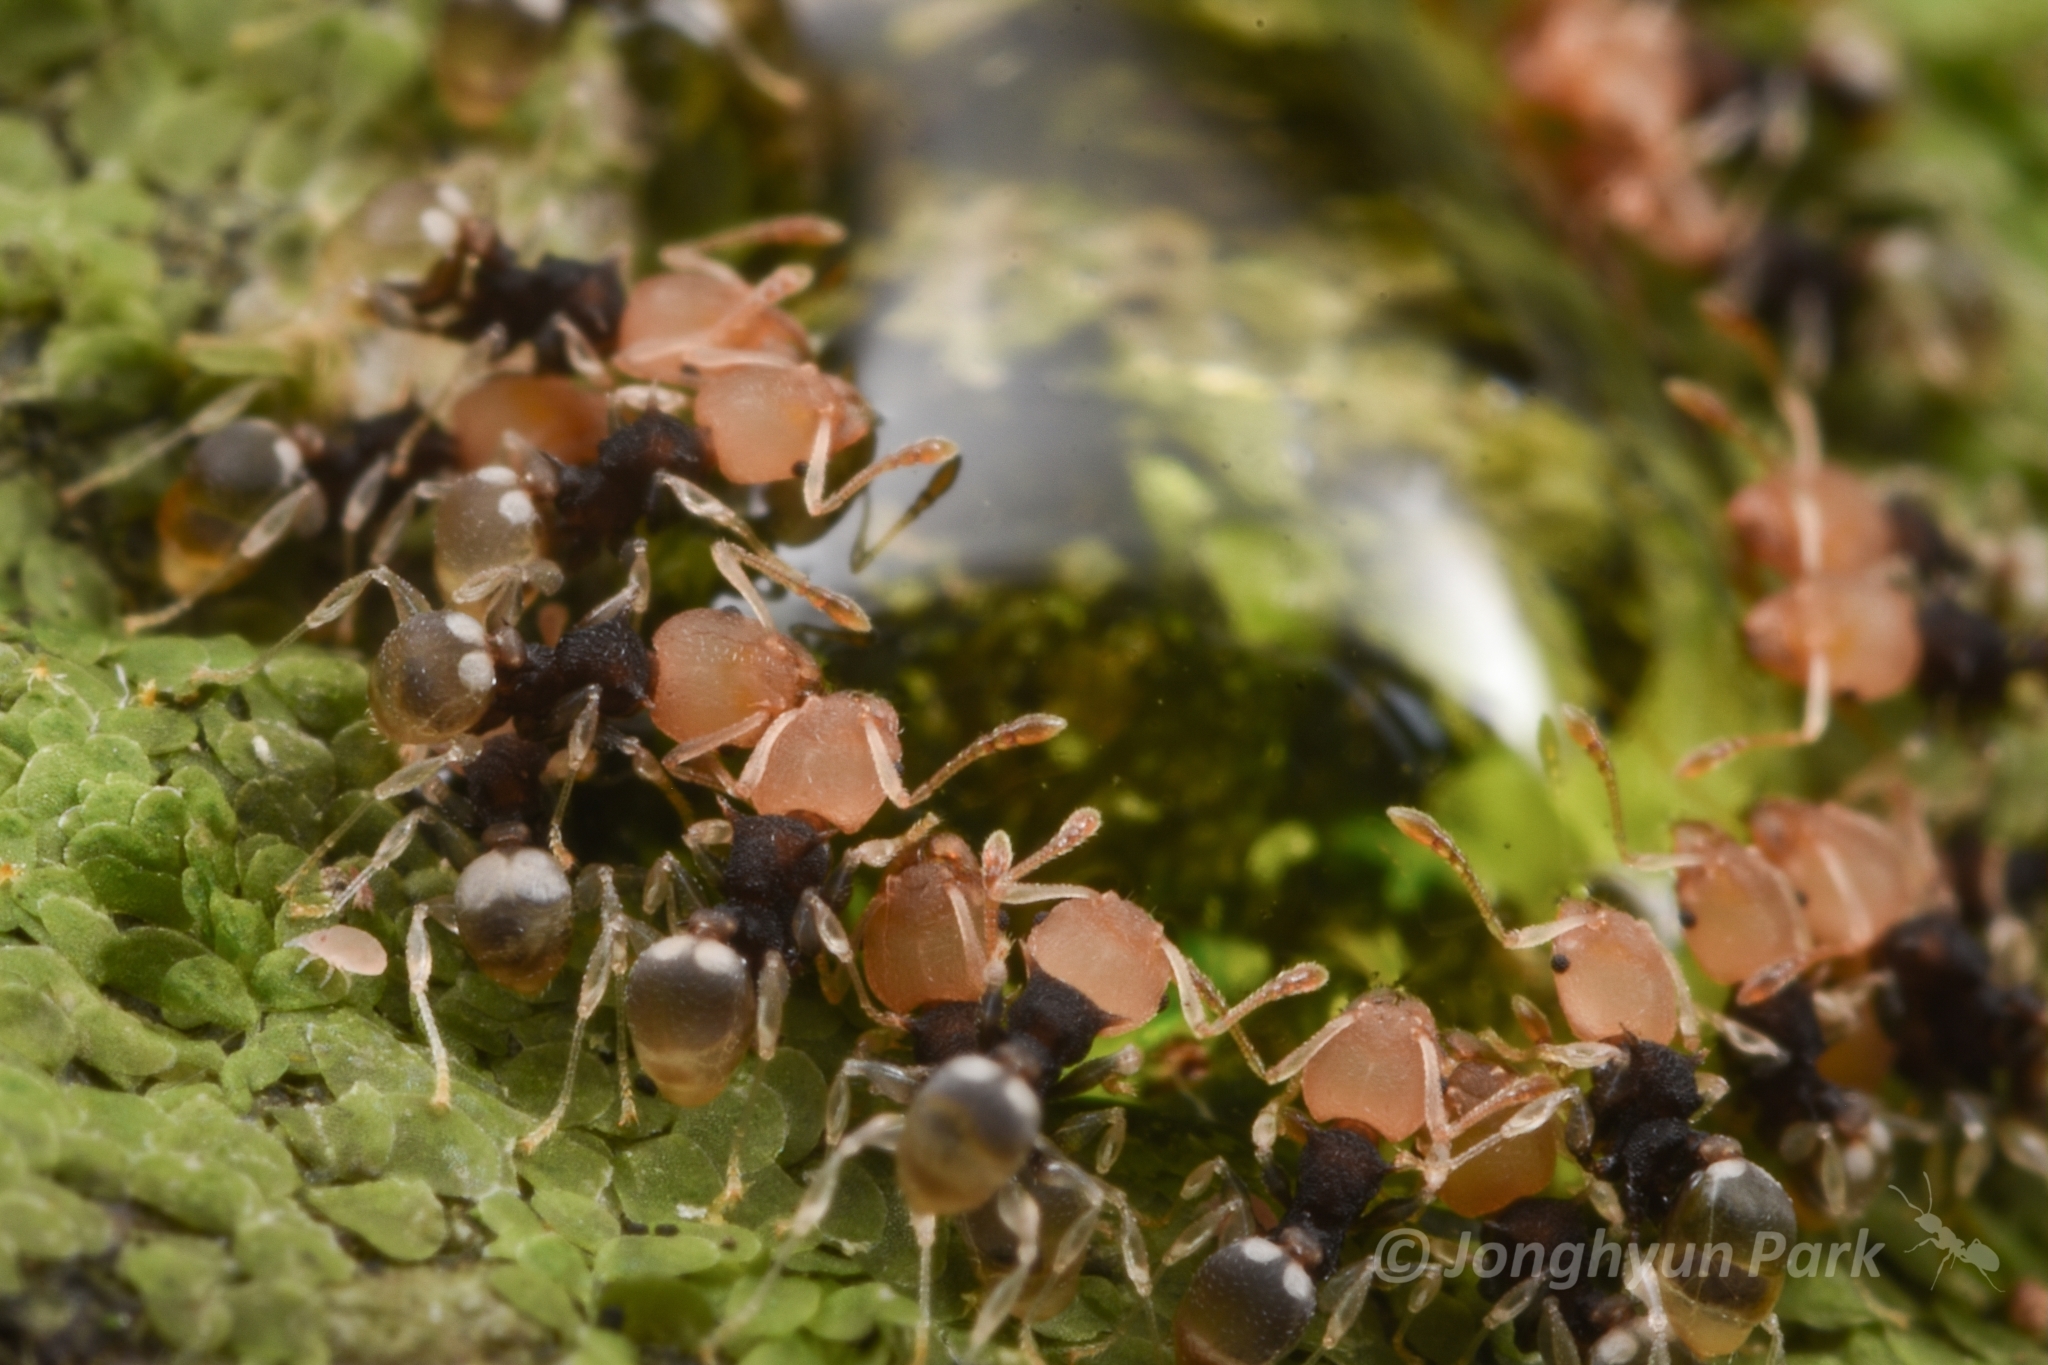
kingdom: Animalia
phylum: Arthropoda
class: Insecta
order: Hymenoptera
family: Formicidae
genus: Pheidole
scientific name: Pheidole
